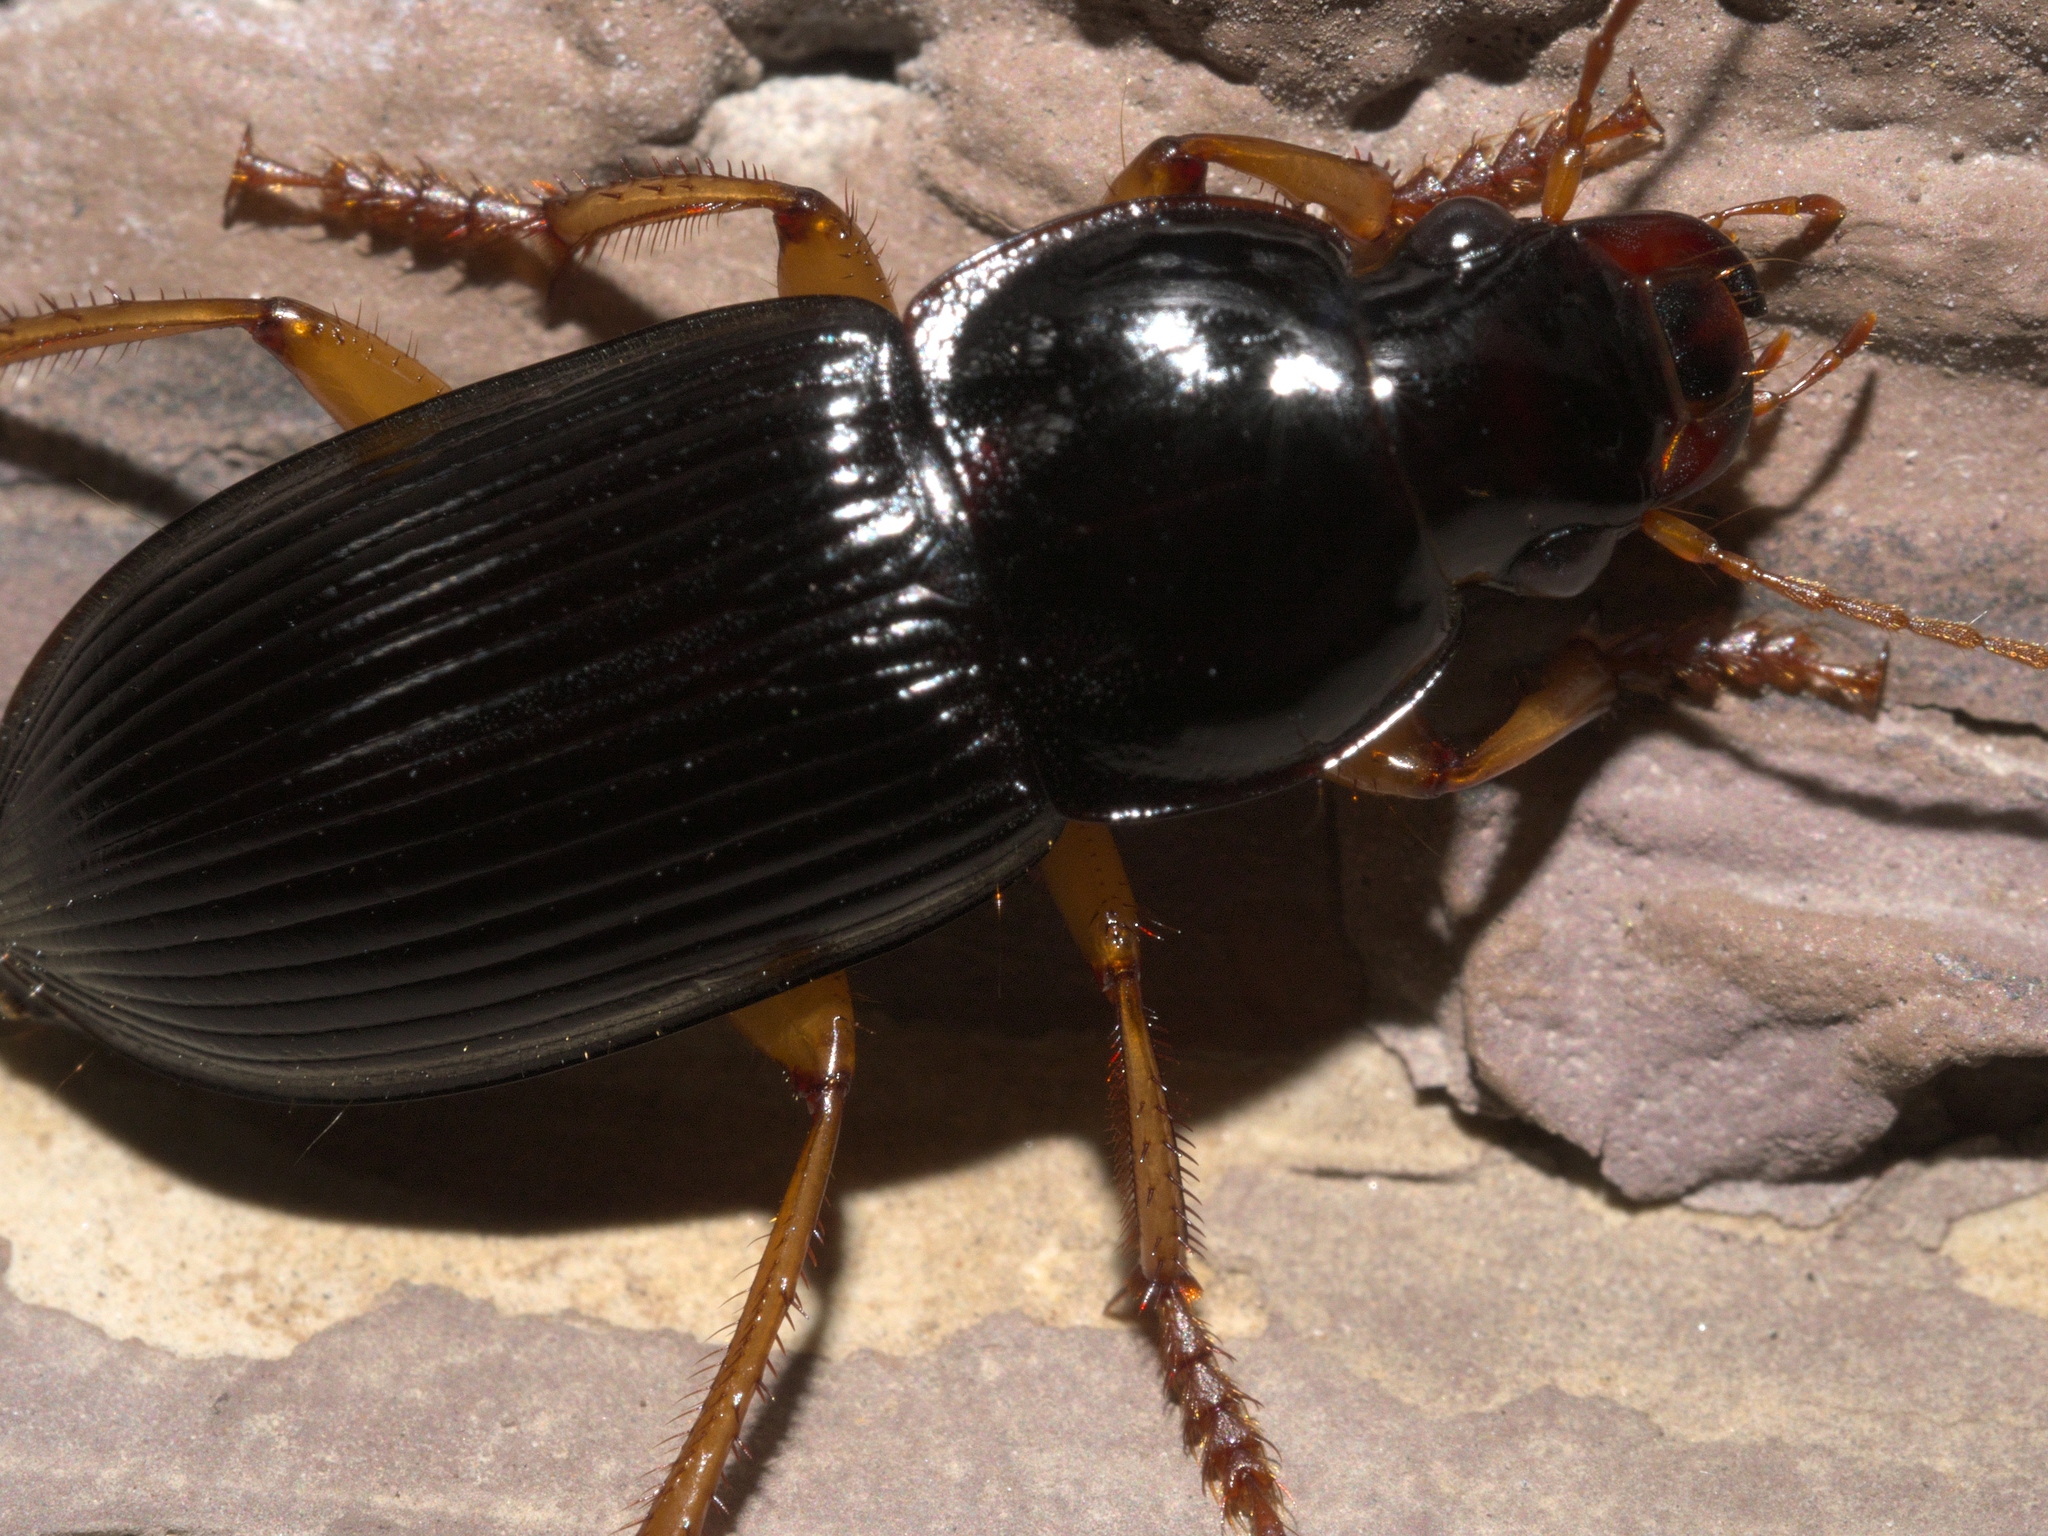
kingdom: Animalia
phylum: Arthropoda
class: Insecta
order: Coleoptera
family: Carabidae
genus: Harpalus
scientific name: Harpalus pensylvanicus
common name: Pennsylvania dingy ground beetle
